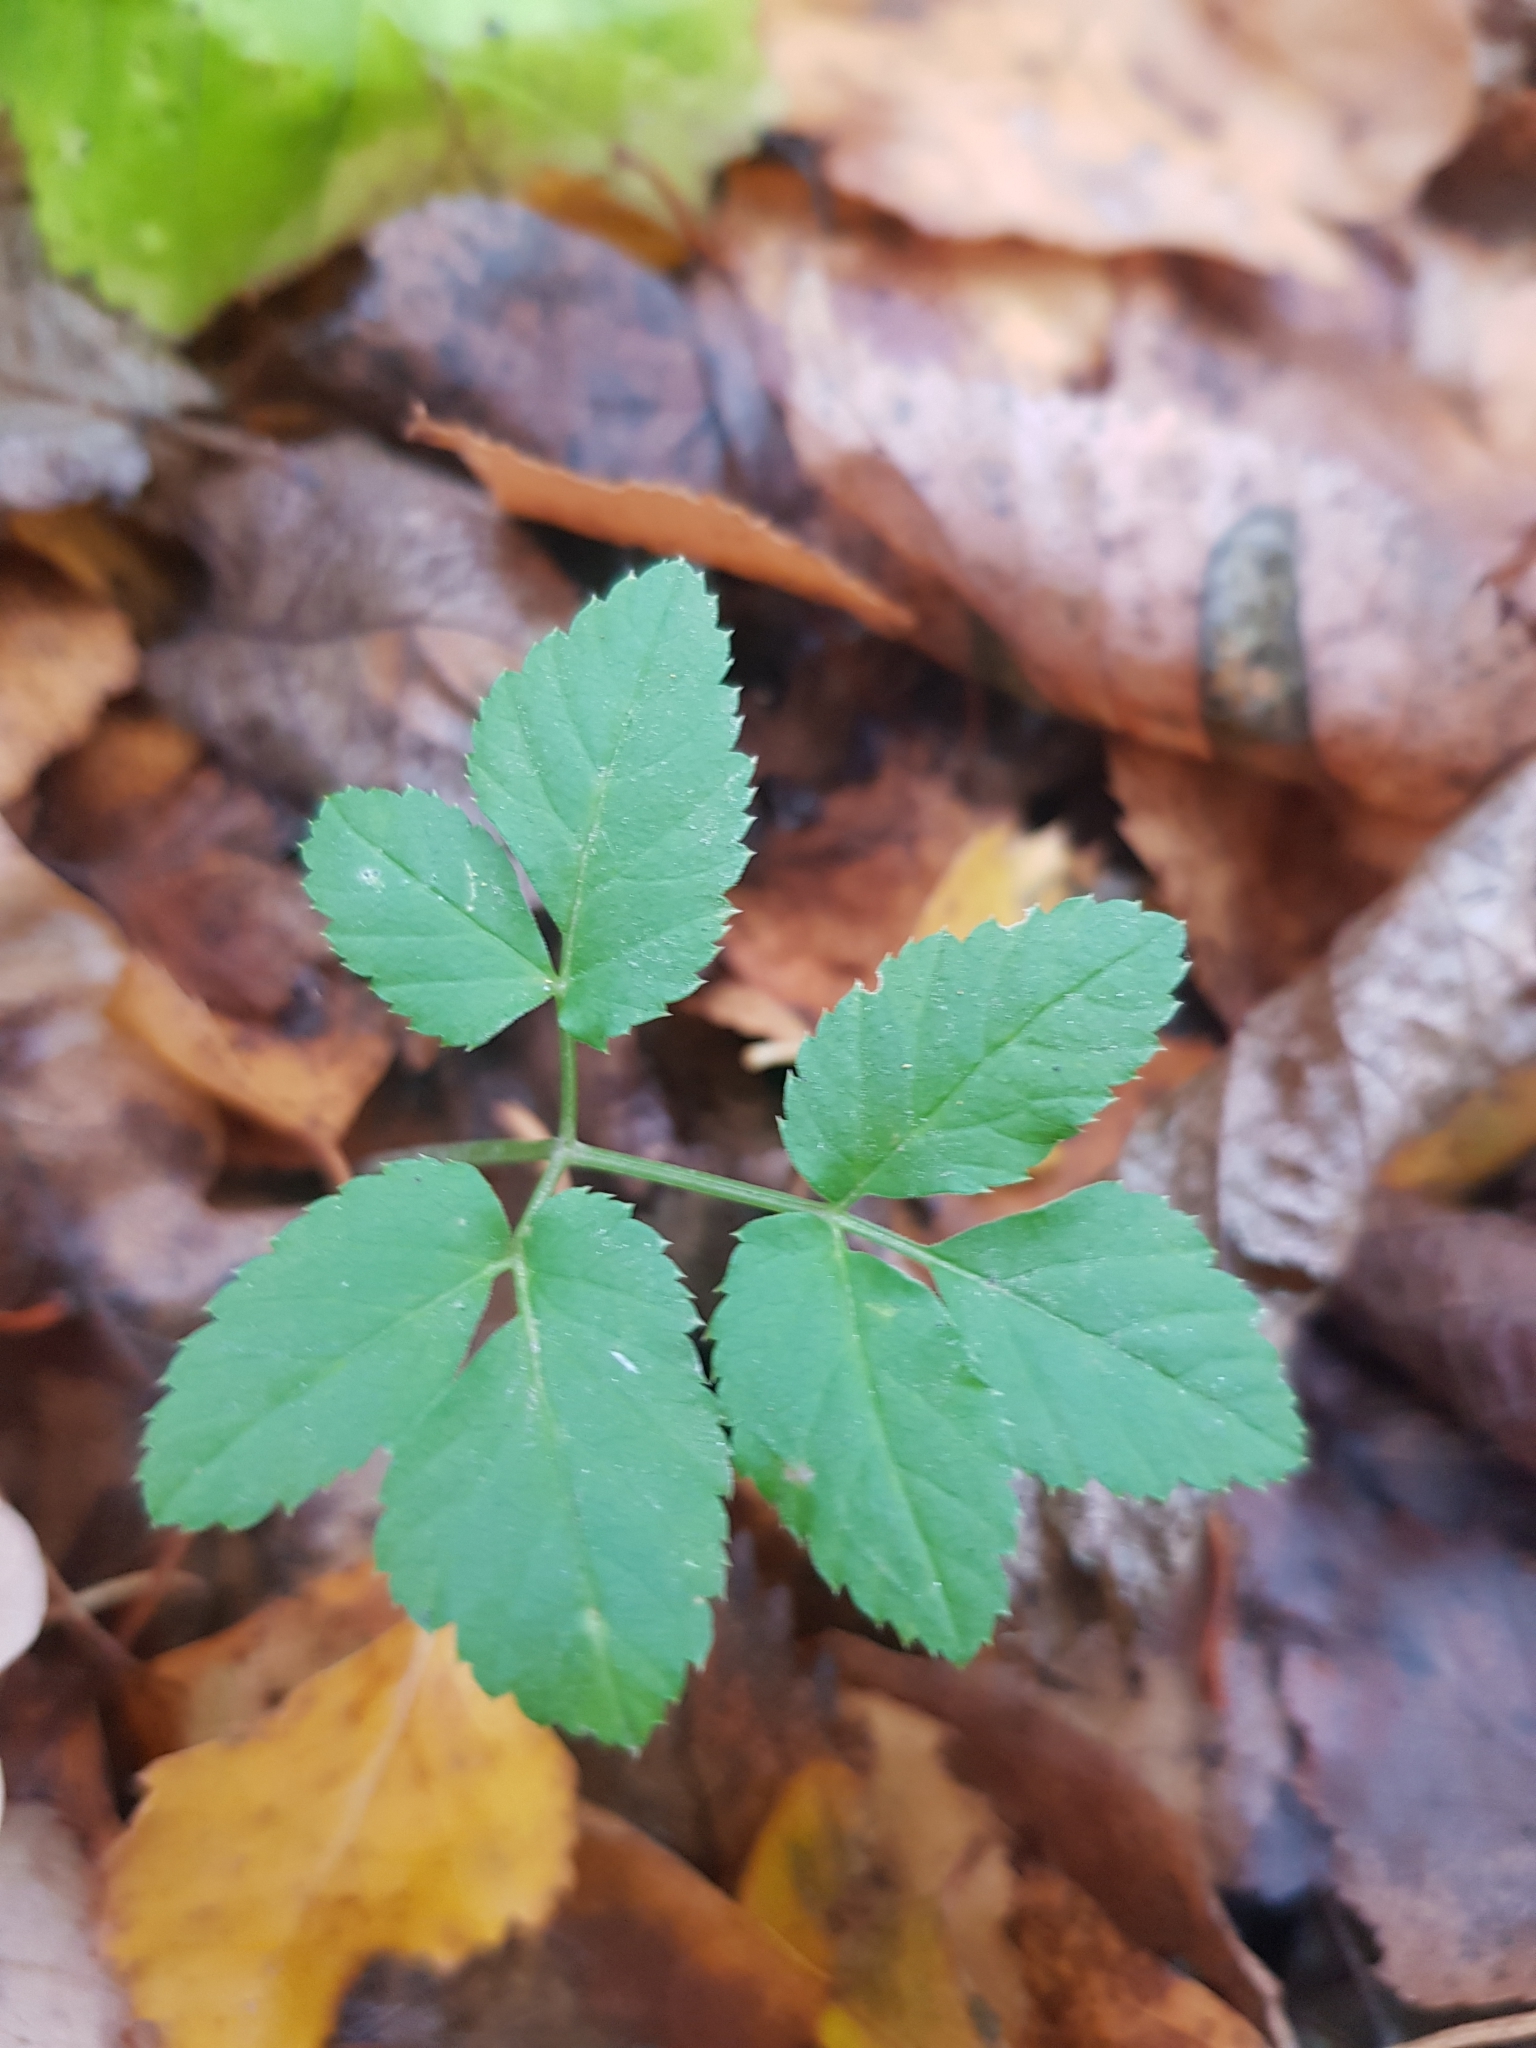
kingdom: Plantae
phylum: Tracheophyta
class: Magnoliopsida
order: Apiales
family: Apiaceae
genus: Aegopodium
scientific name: Aegopodium podagraria
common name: Ground-elder
